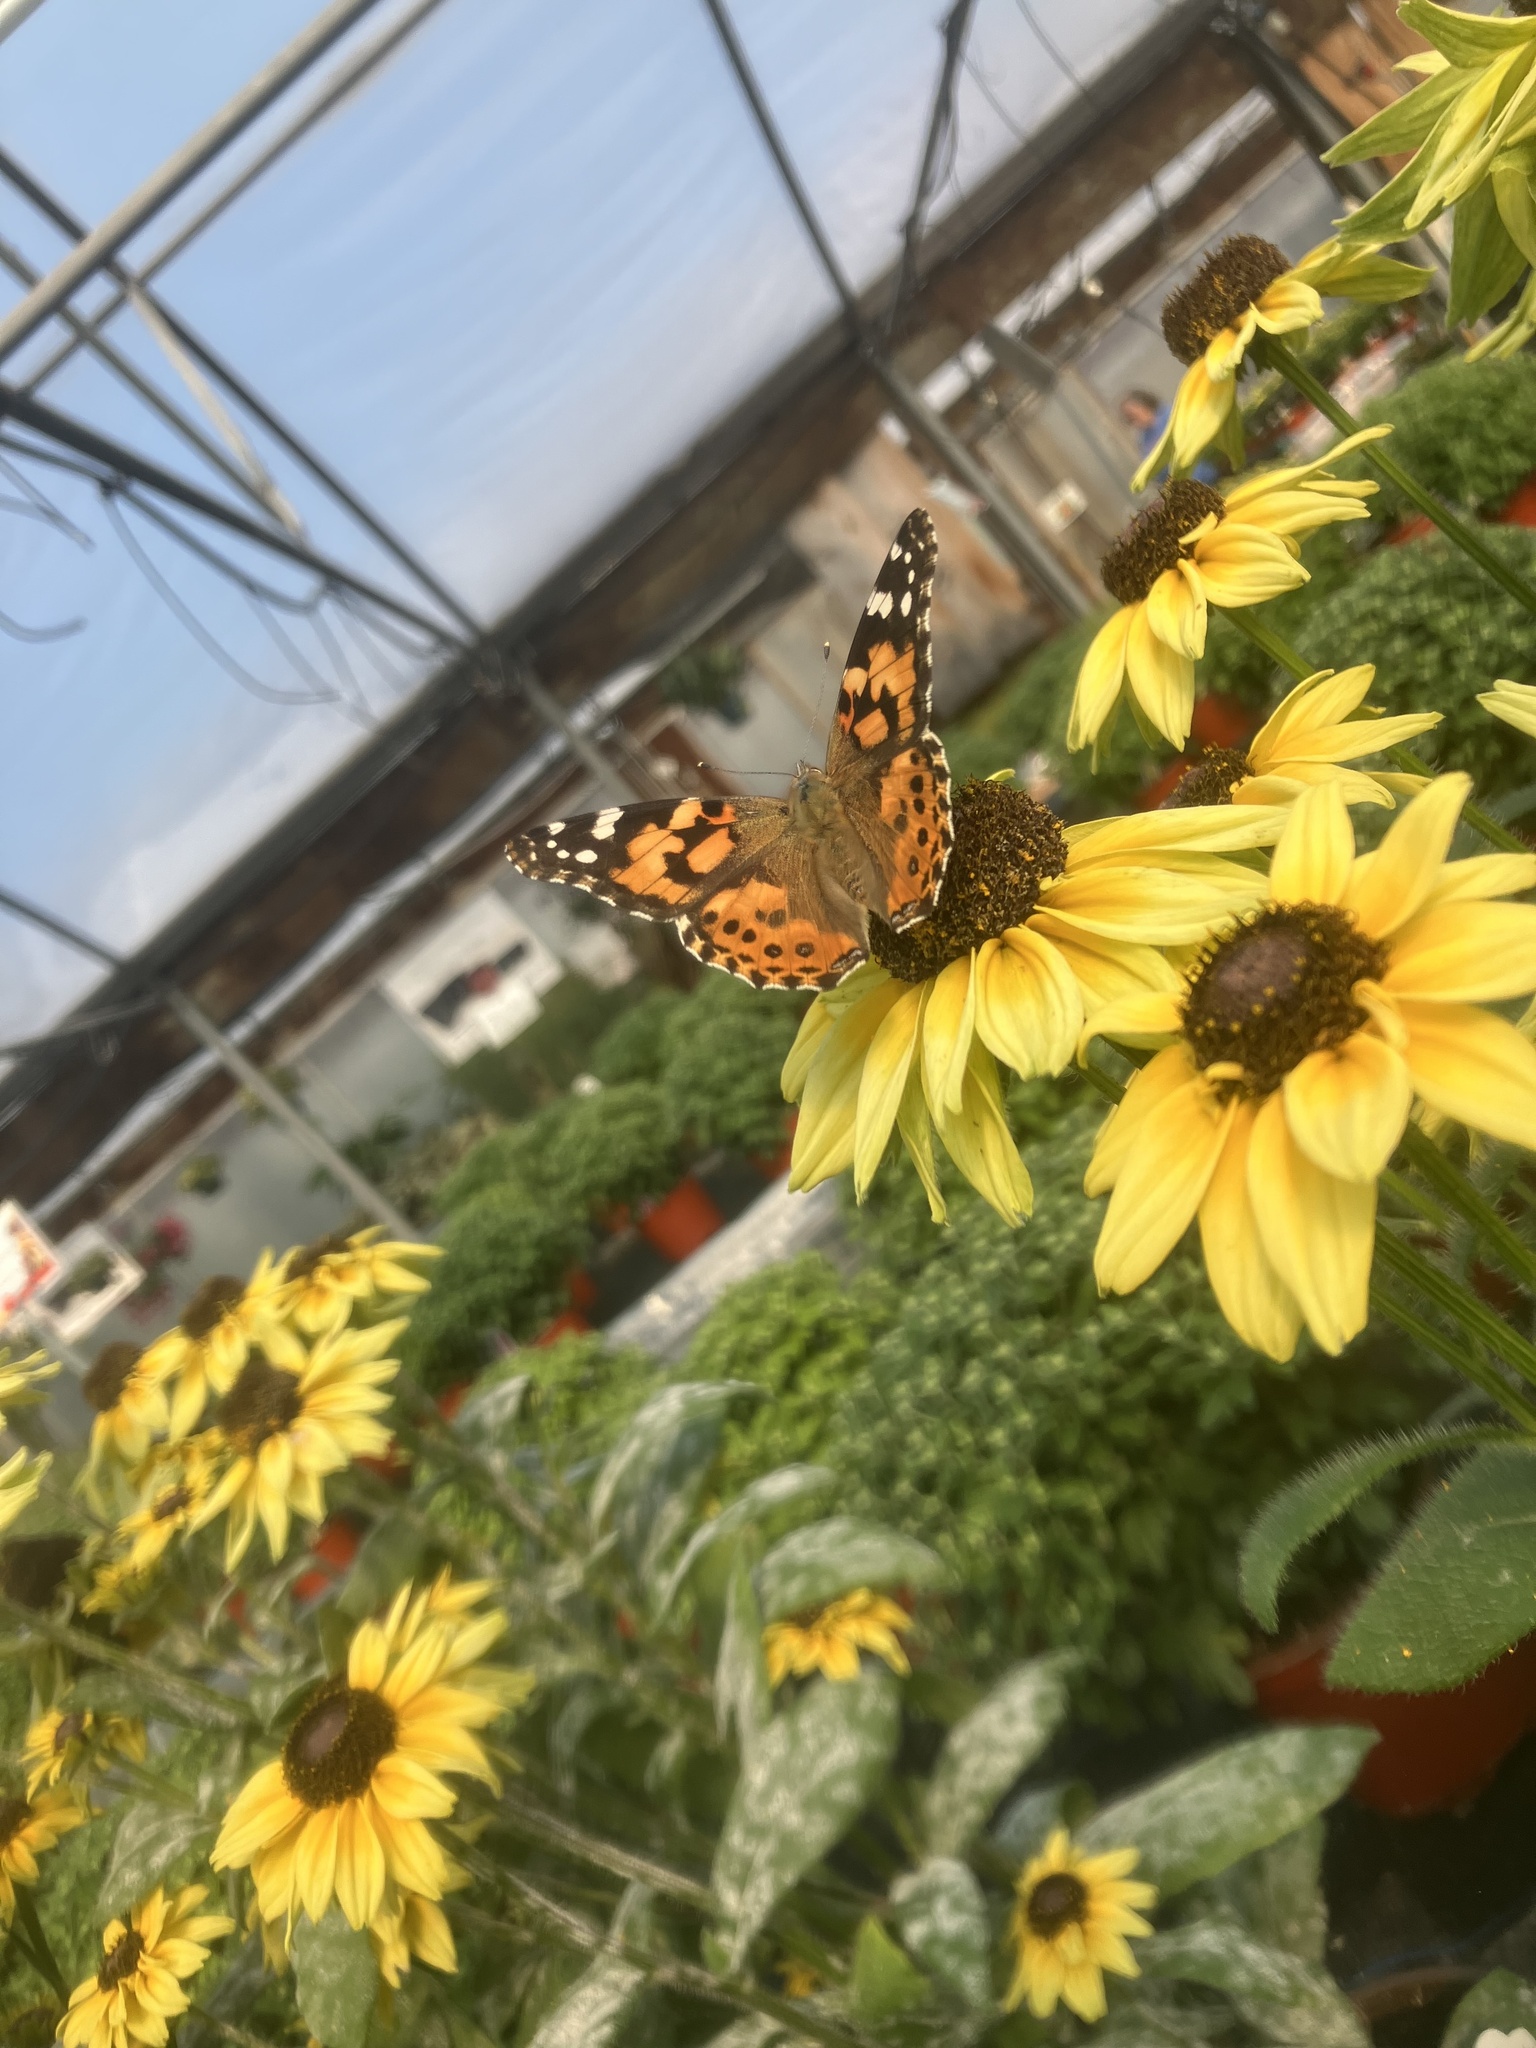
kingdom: Animalia
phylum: Arthropoda
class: Insecta
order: Lepidoptera
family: Nymphalidae
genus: Vanessa
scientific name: Vanessa cardui
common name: Painted lady
